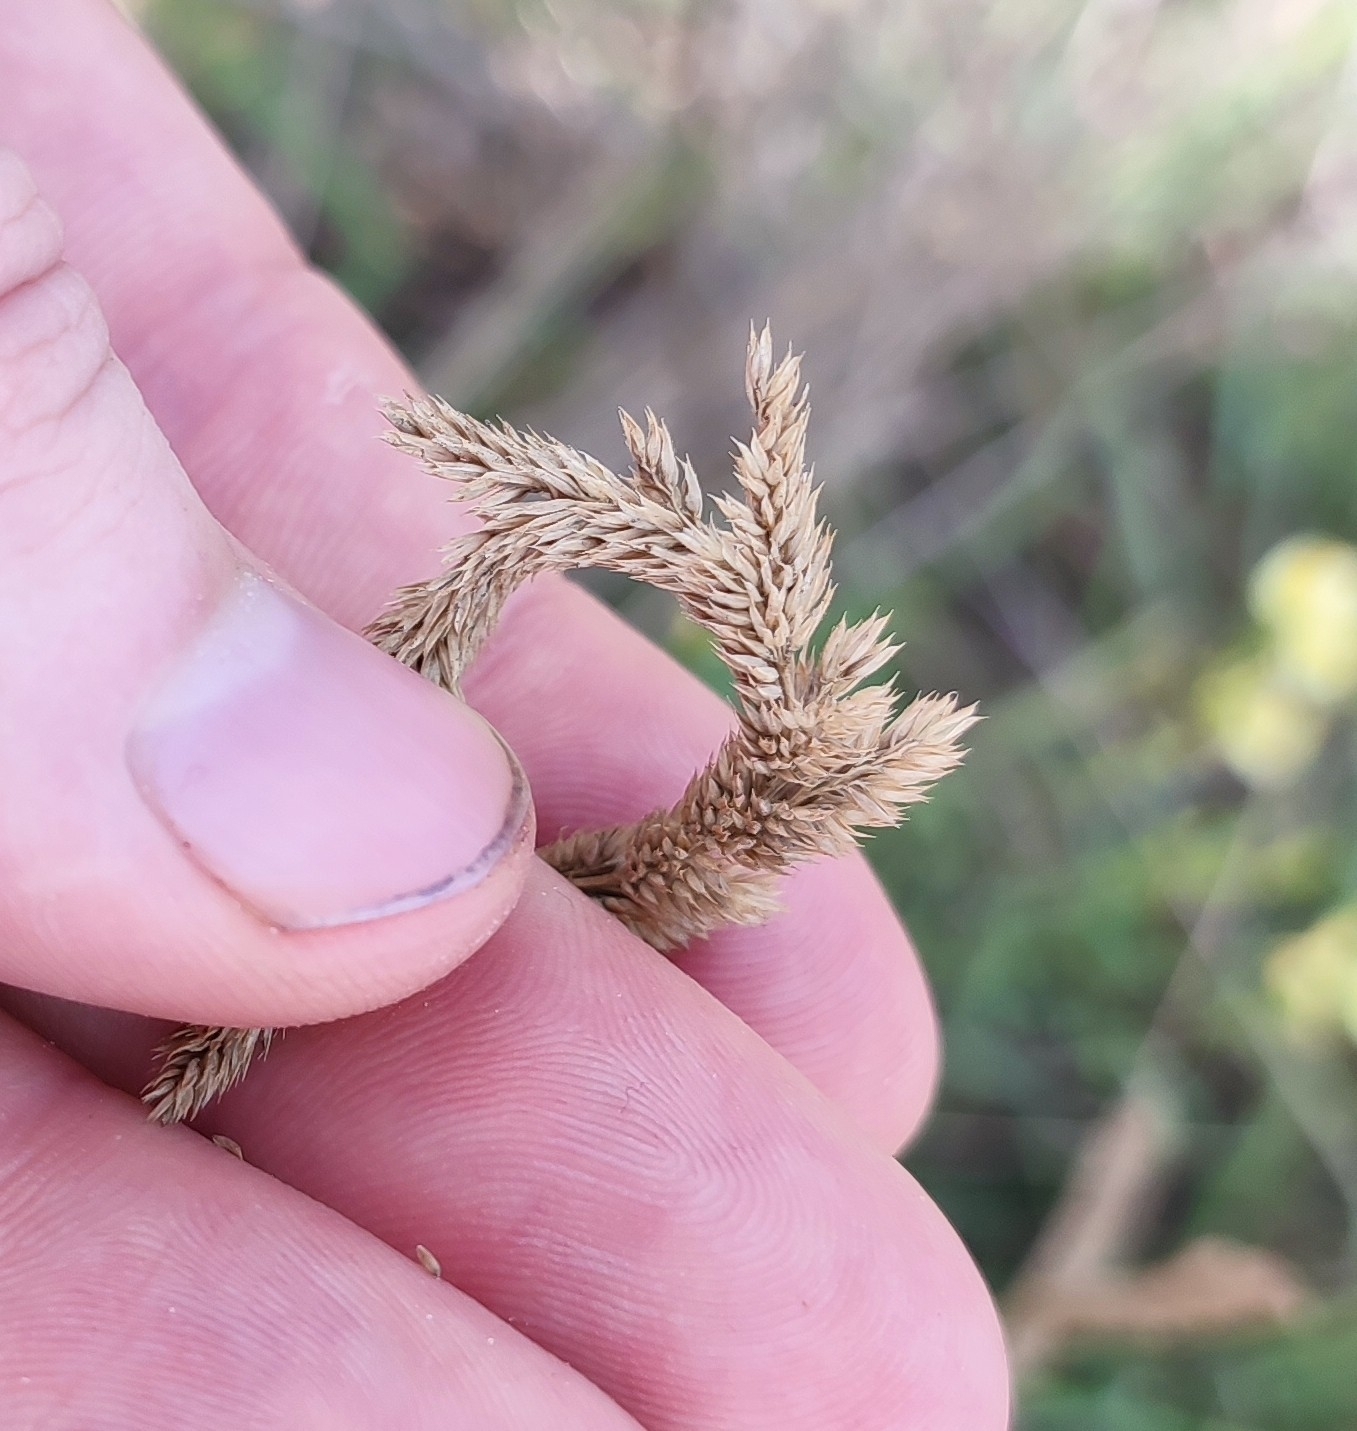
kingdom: Plantae
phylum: Tracheophyta
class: Liliopsida
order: Poales
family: Poaceae
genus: Phleum
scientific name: Phleum phleoides
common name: Purple-stem cat's-tail
